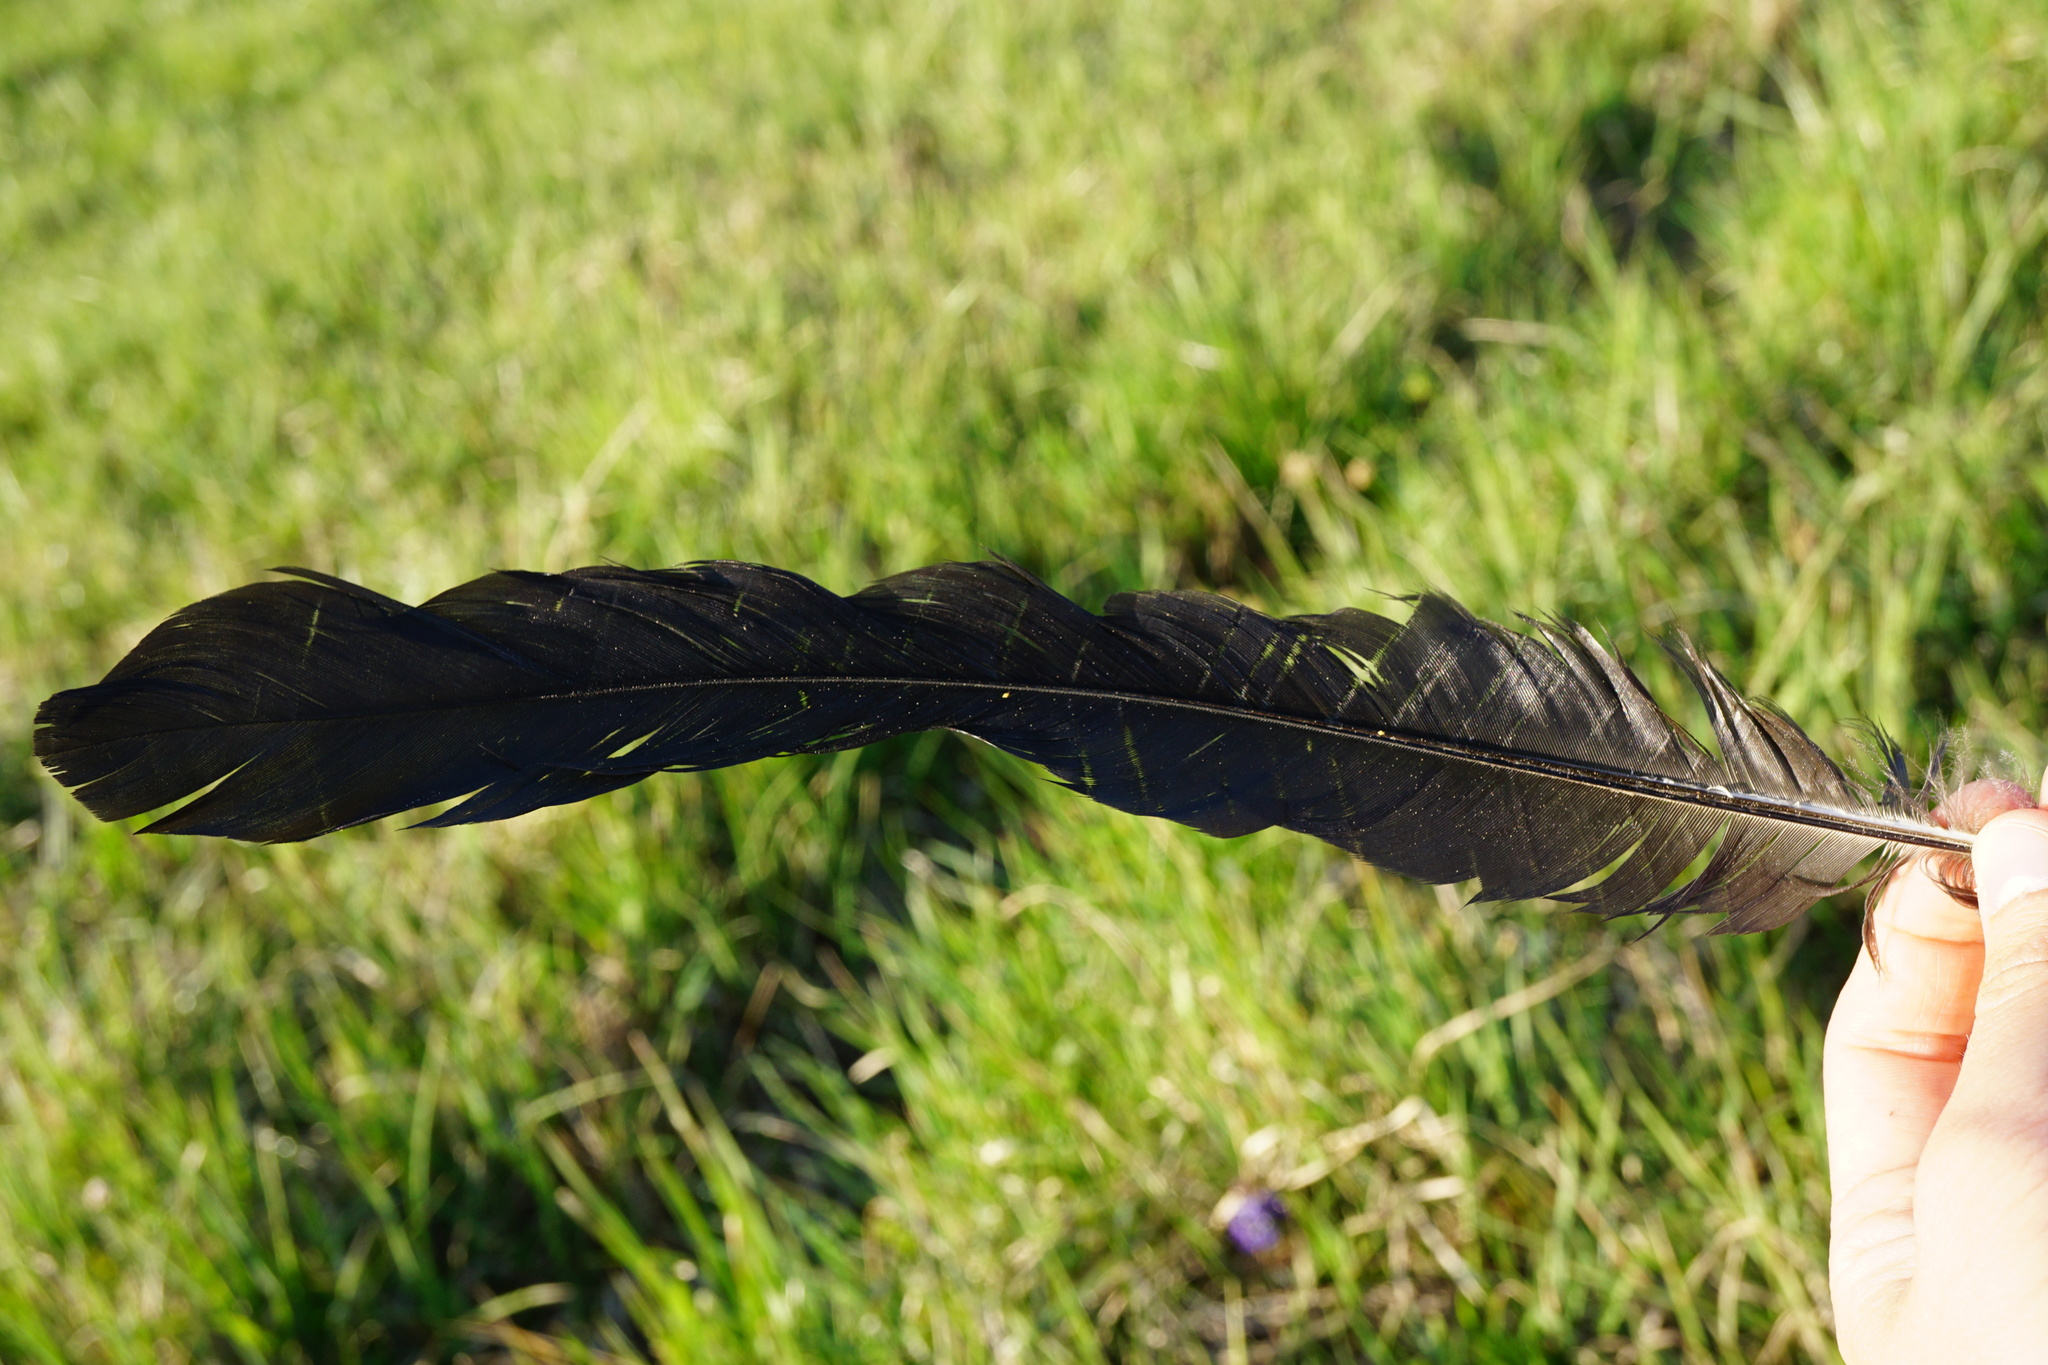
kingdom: Animalia
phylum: Chordata
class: Aves
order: Passeriformes
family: Corvidae
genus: Corvus
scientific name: Corvus corax
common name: Common raven
